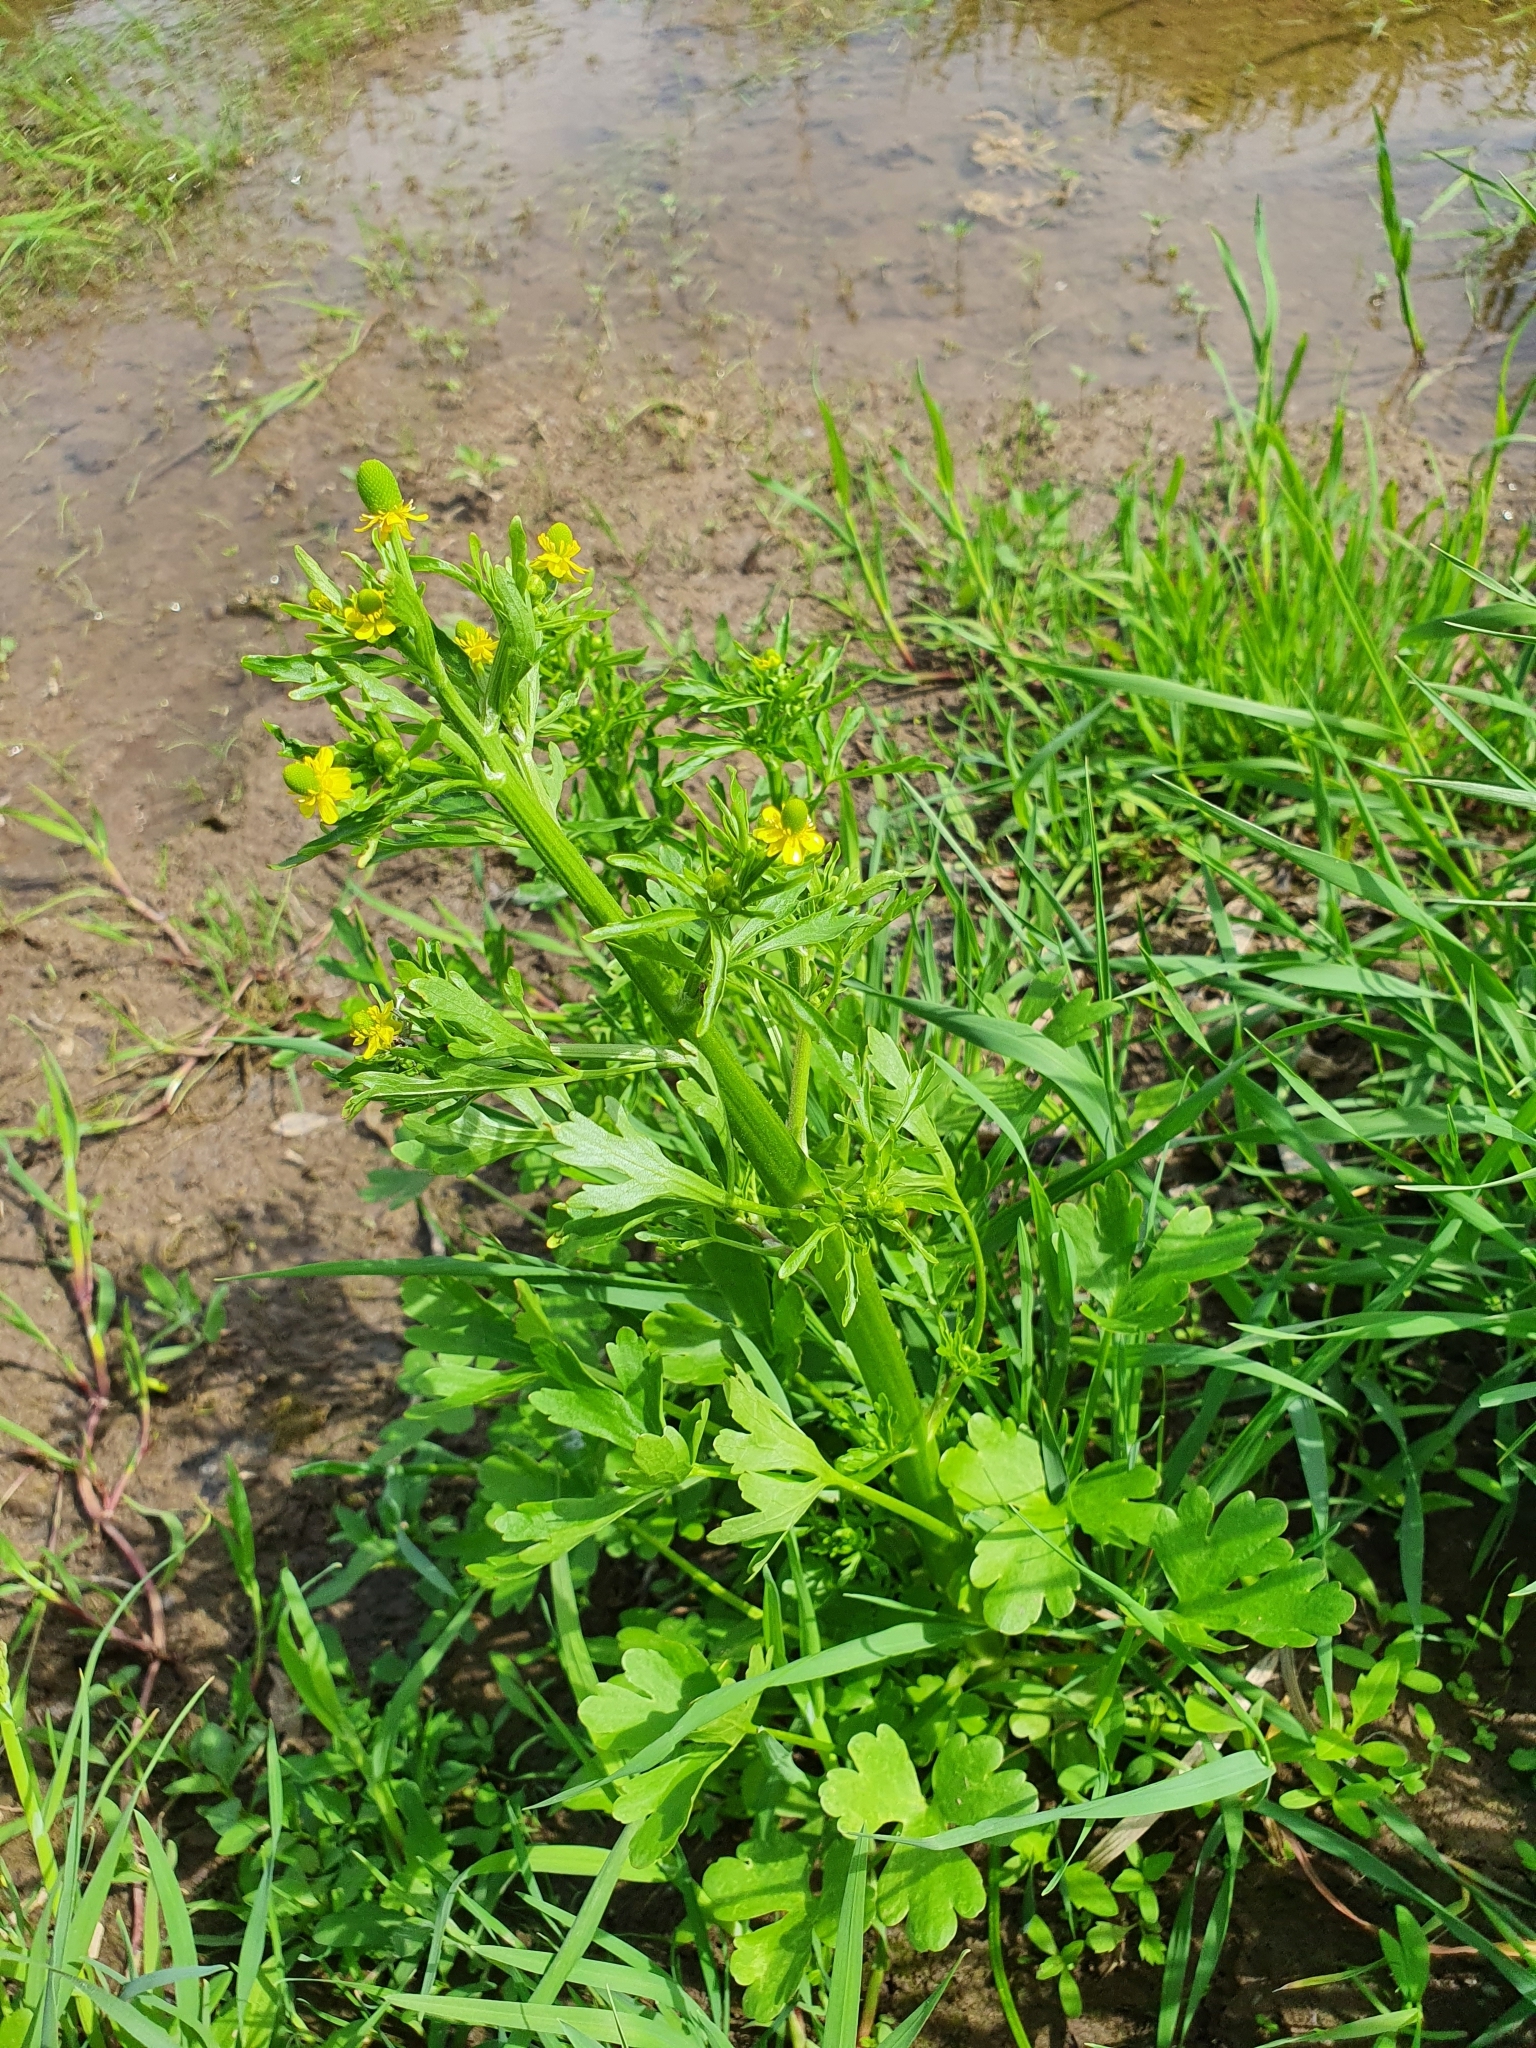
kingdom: Plantae
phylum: Tracheophyta
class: Magnoliopsida
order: Ranunculales
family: Ranunculaceae
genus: Ranunculus
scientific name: Ranunculus sceleratus
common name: Celery-leaved buttercup
